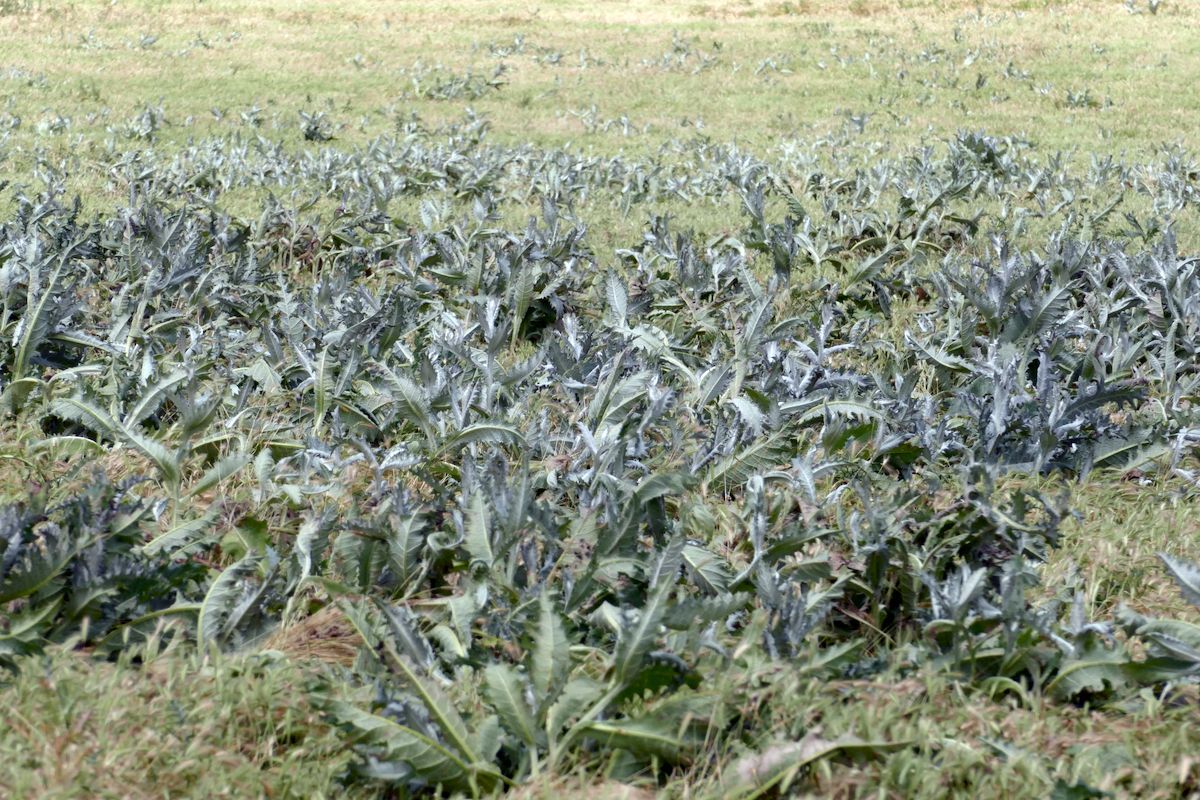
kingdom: Plantae
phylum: Tracheophyta
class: Magnoliopsida
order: Asterales
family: Asteraceae
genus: Onopordum
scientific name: Onopordum acanthium
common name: Scotch thistle
